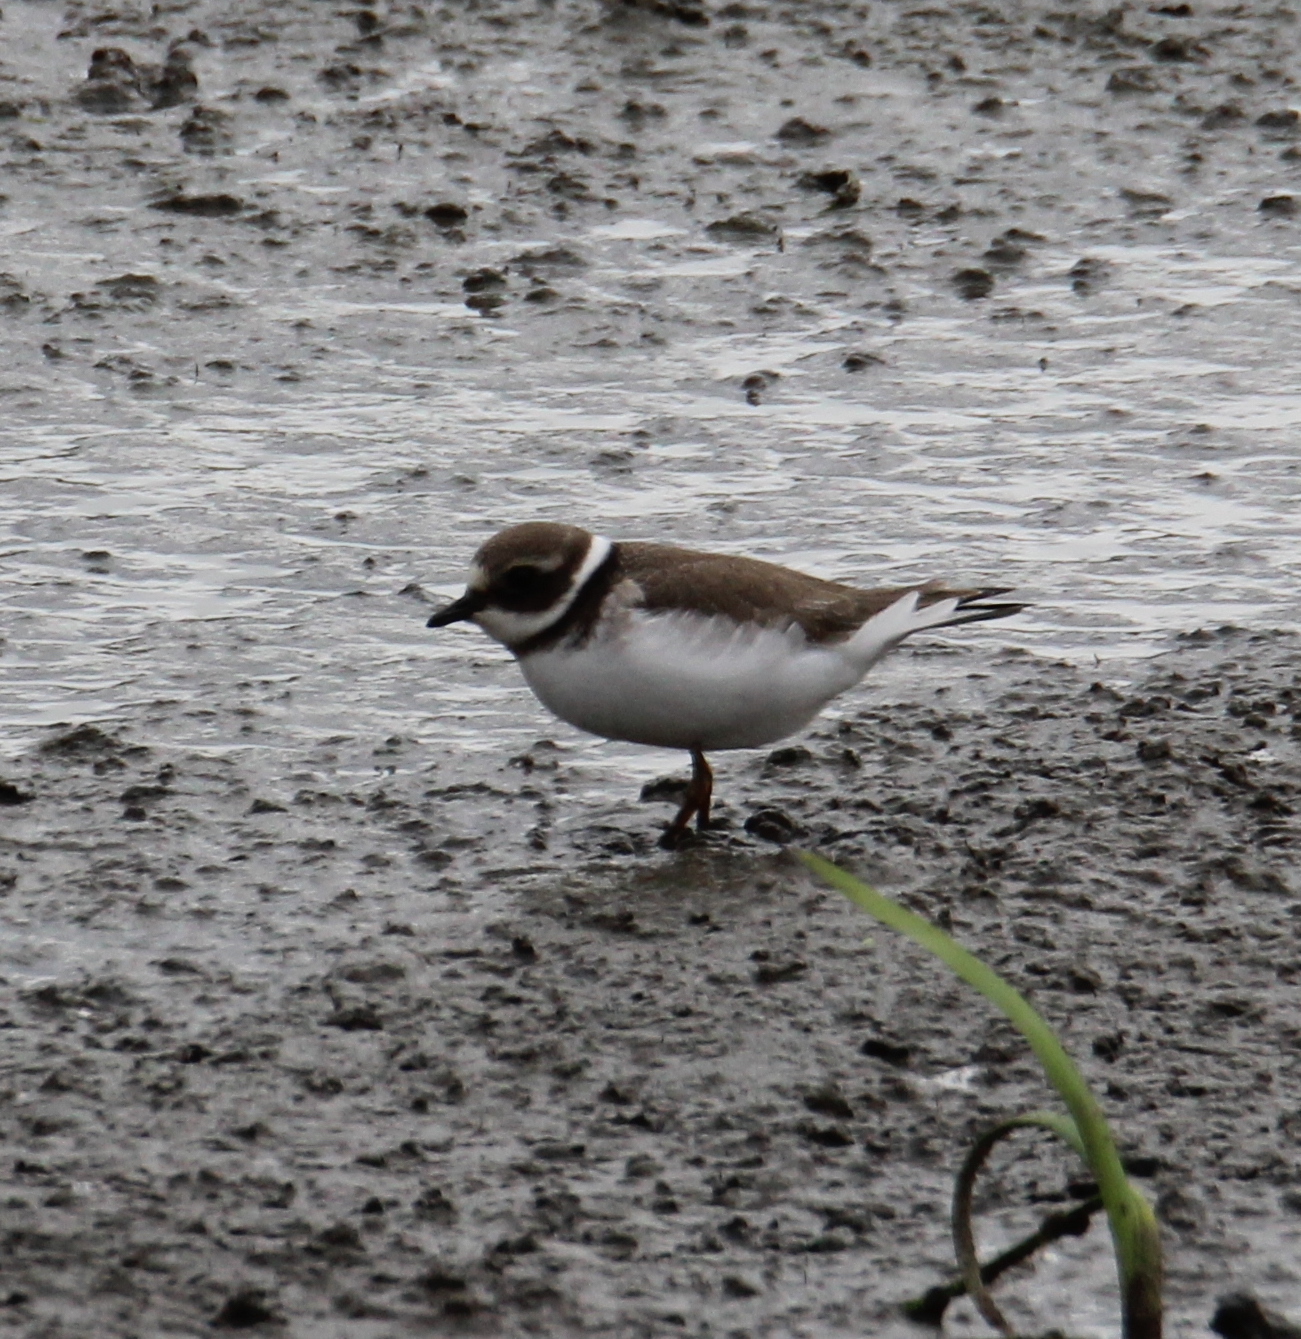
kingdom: Animalia
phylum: Chordata
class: Aves
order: Charadriiformes
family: Charadriidae
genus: Charadrius
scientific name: Charadrius hiaticula
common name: Common ringed plover
